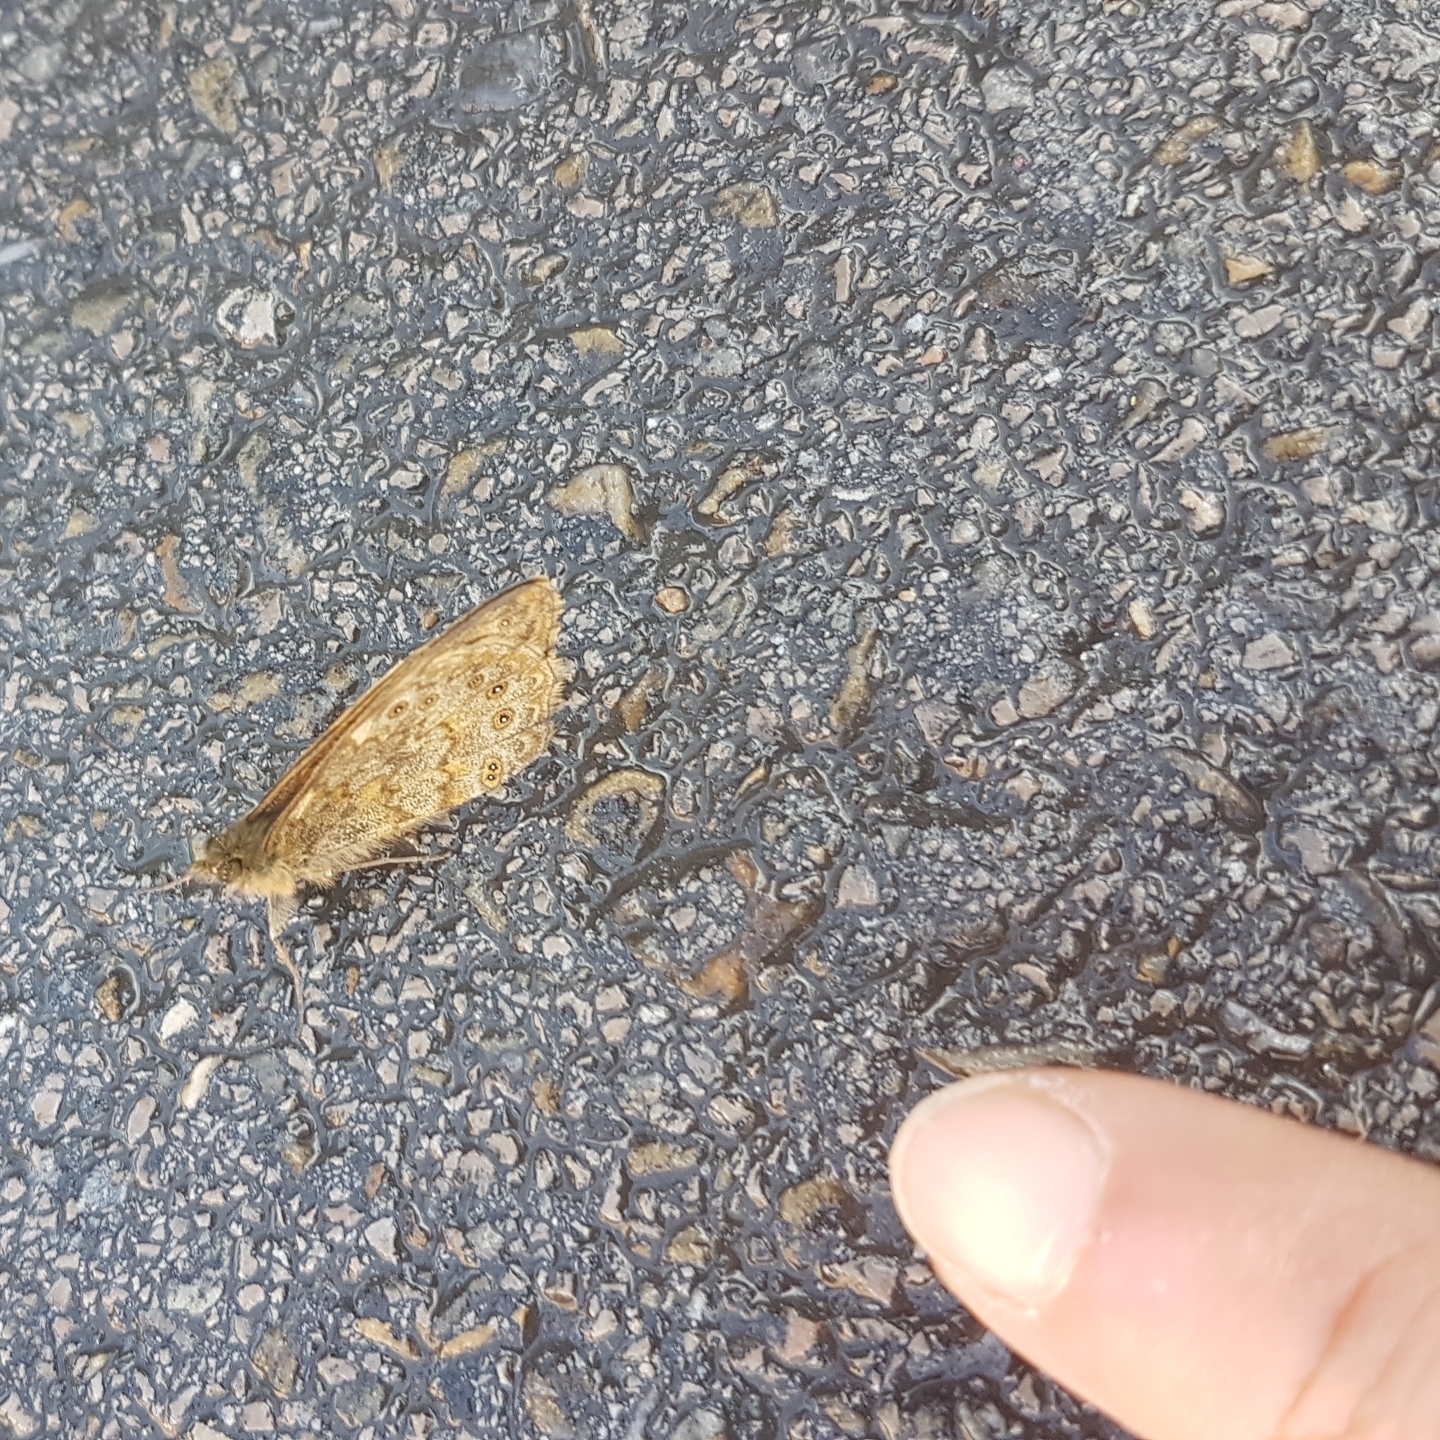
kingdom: Animalia
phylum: Arthropoda
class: Insecta
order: Lepidoptera
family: Nymphalidae
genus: Pararge
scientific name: Pararge Lasiommata megera
